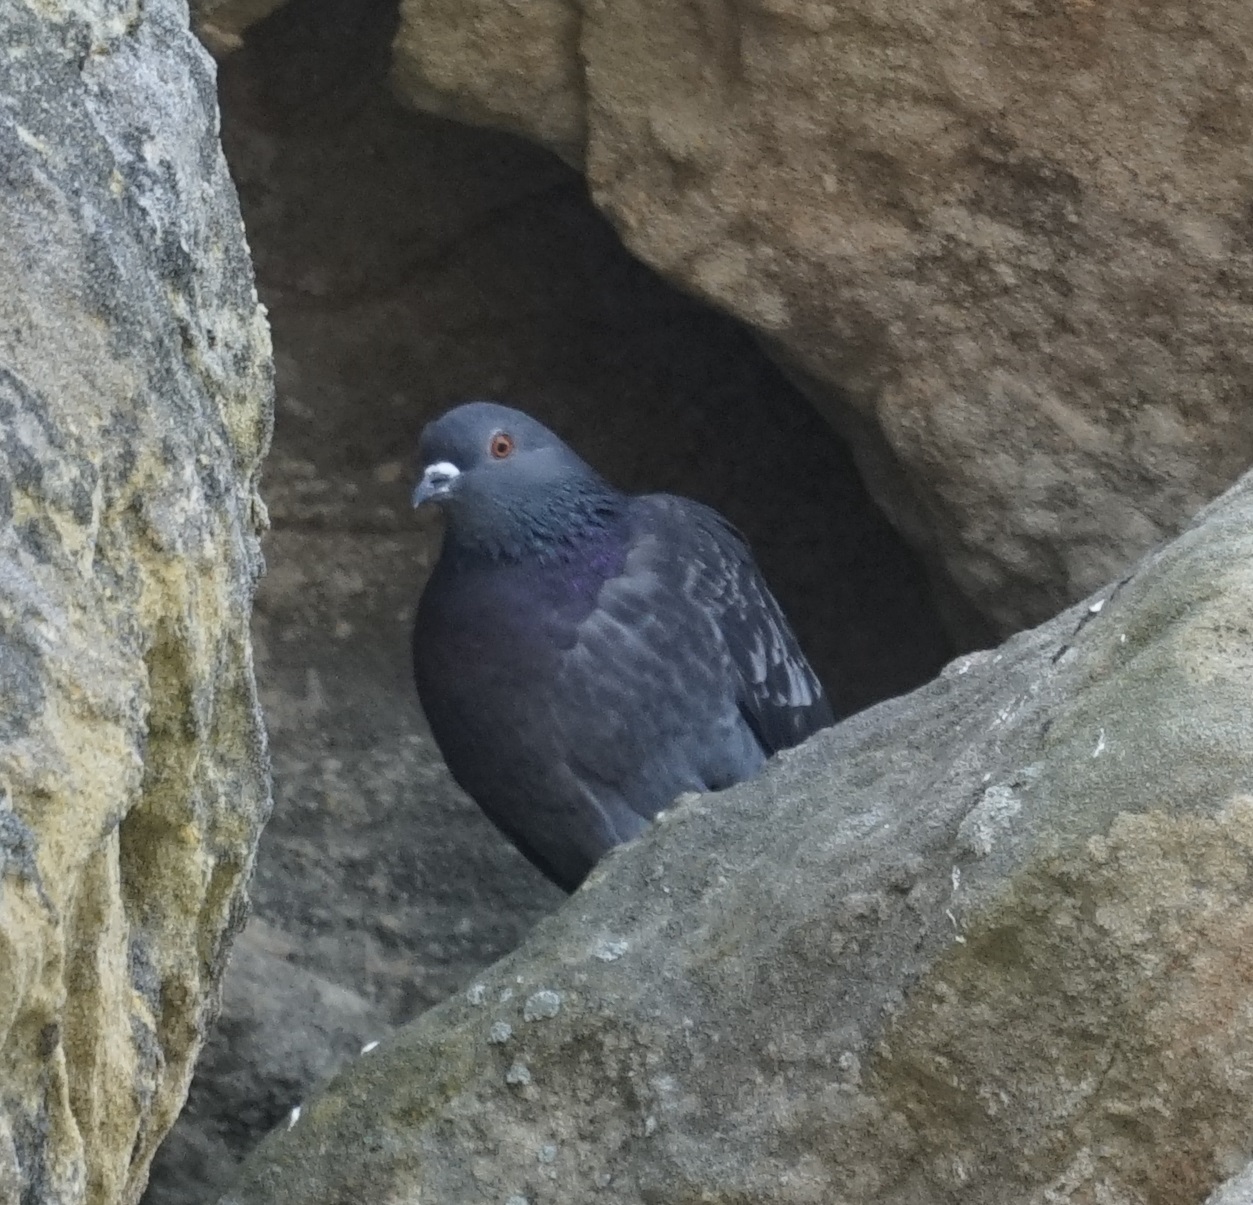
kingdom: Animalia
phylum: Chordata
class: Aves
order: Columbiformes
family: Columbidae
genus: Columba
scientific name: Columba livia
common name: Rock pigeon
